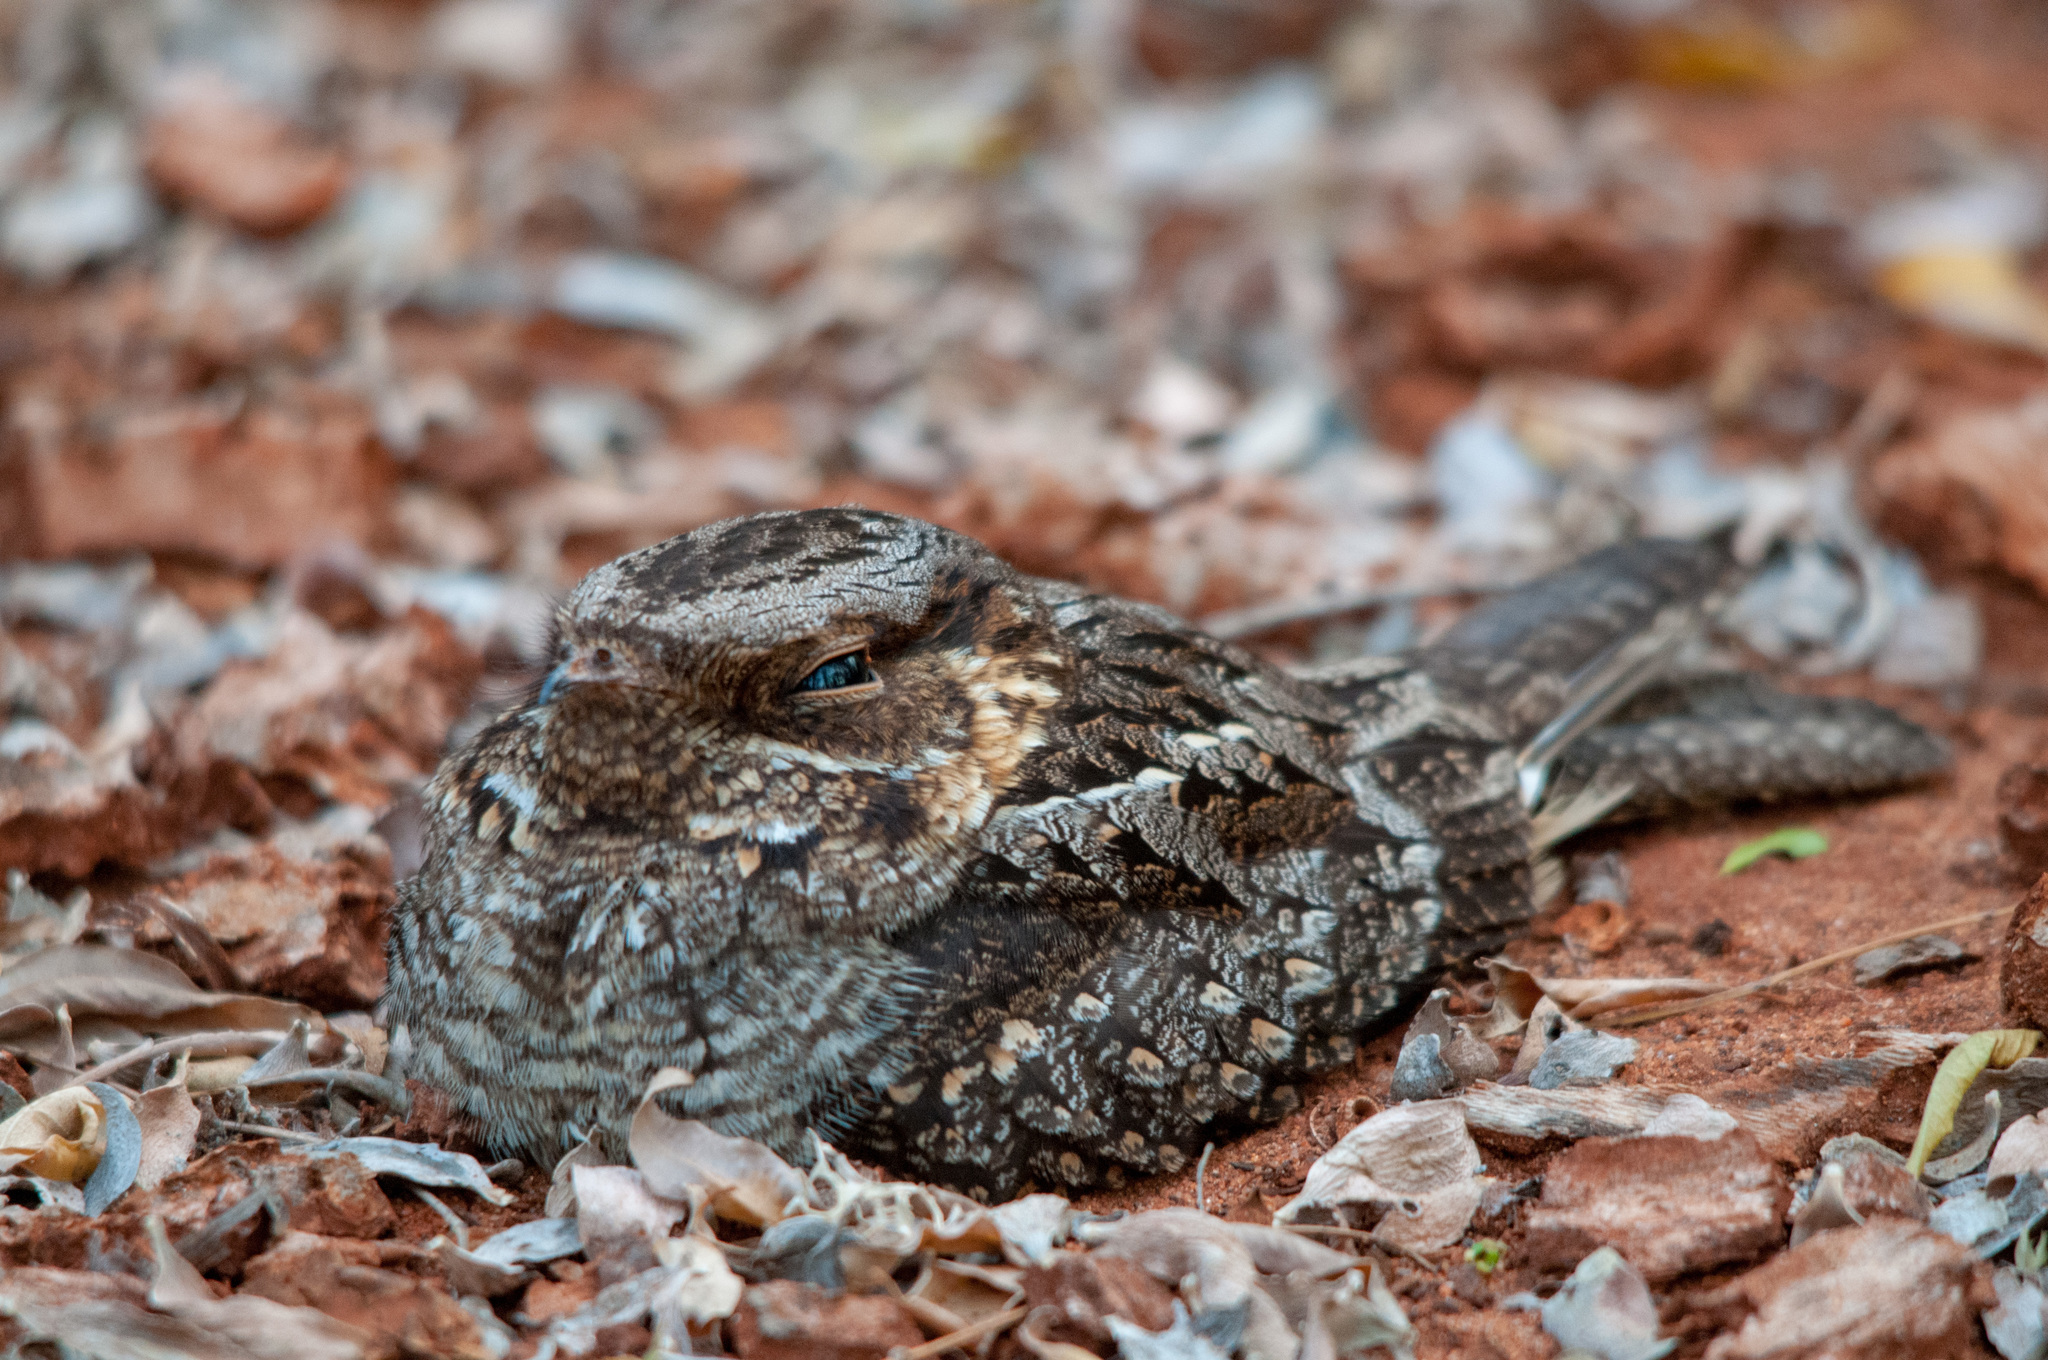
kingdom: Animalia
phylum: Chordata
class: Aves
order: Caprimulgiformes
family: Caprimulgidae
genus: Caprimulgus
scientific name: Caprimulgus madagascariensis
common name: Madagascar nightjar
